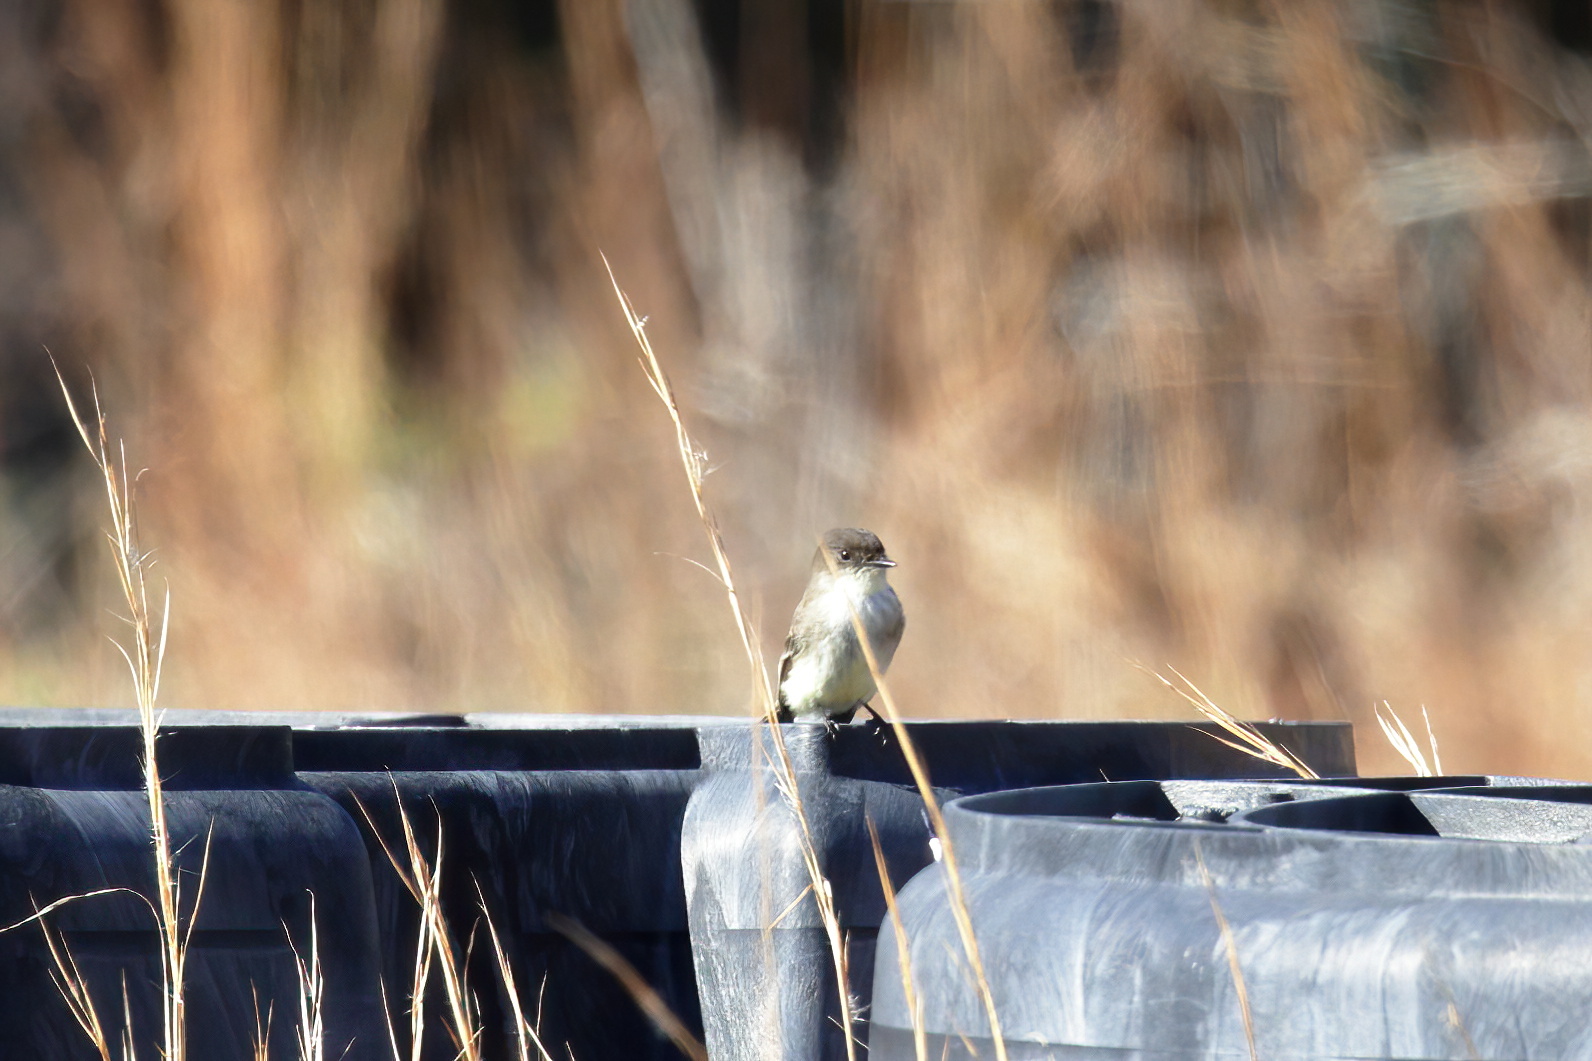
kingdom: Animalia
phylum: Chordata
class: Aves
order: Passeriformes
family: Tyrannidae
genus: Sayornis
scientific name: Sayornis phoebe
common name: Eastern phoebe
